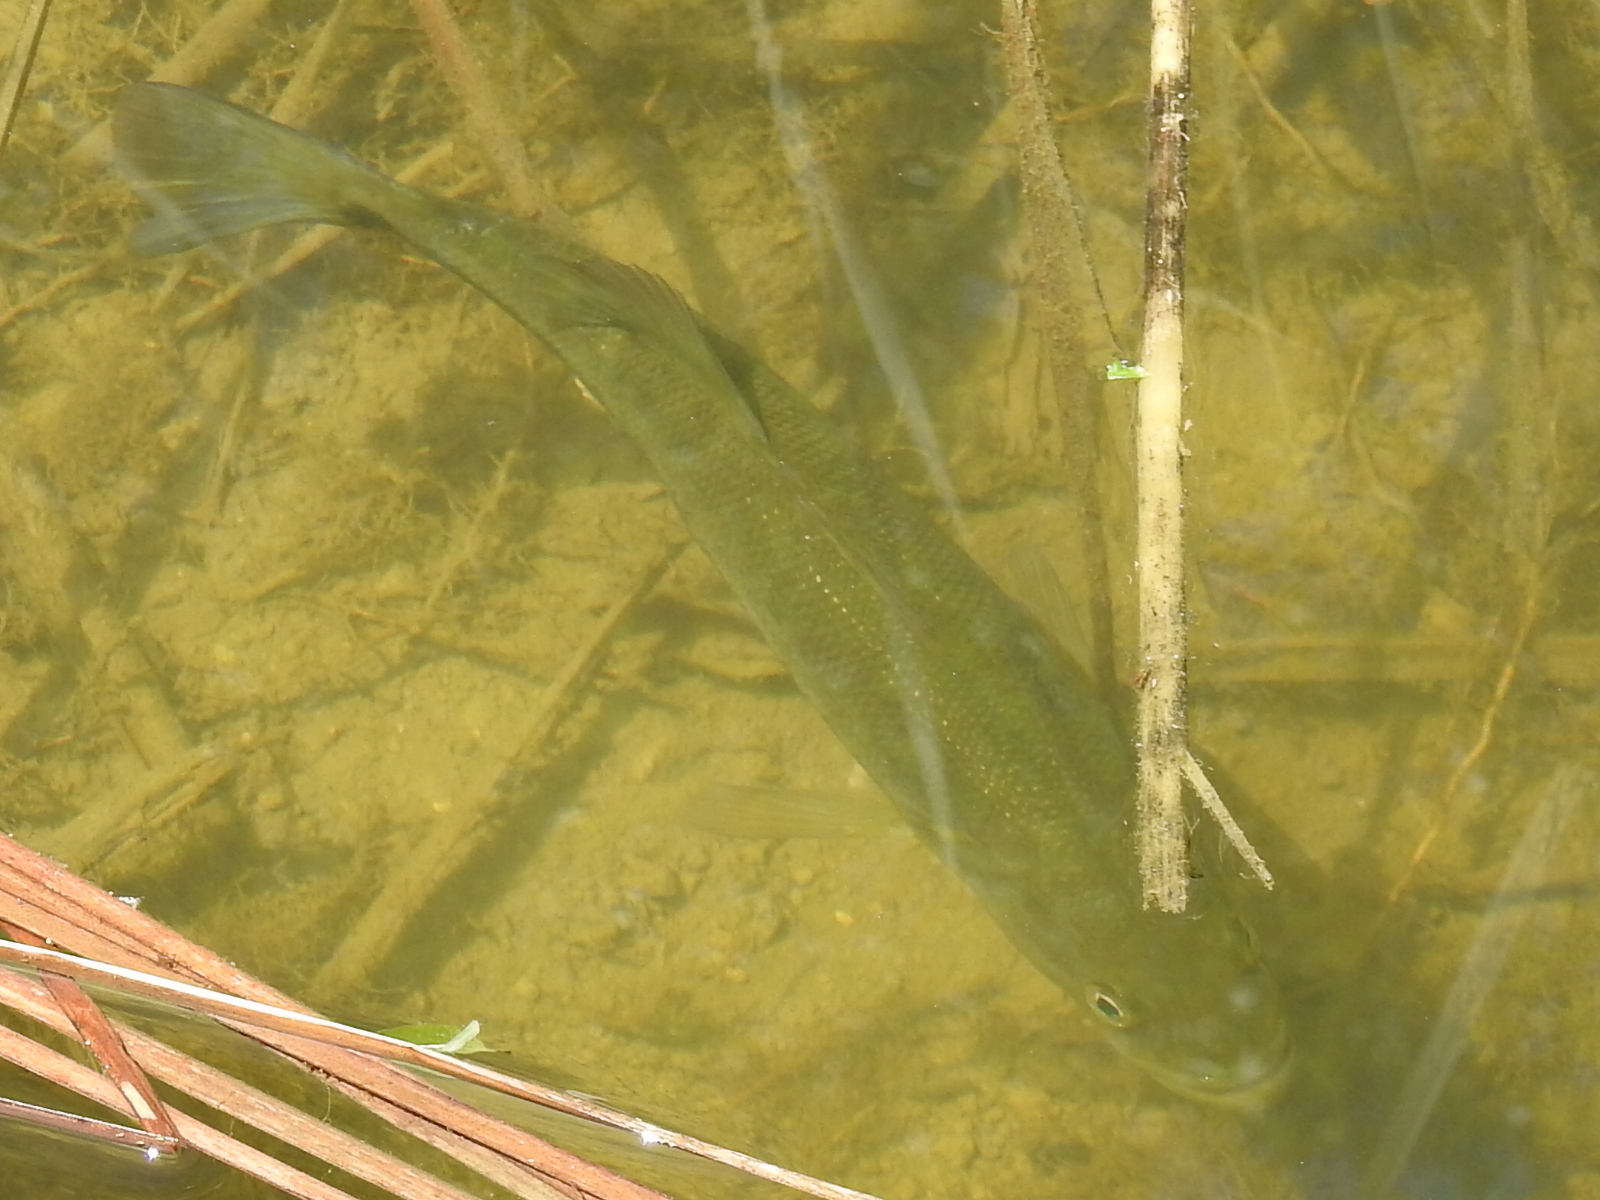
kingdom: Animalia
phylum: Chordata
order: Perciformes
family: Centrarchidae
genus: Micropterus
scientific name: Micropterus
